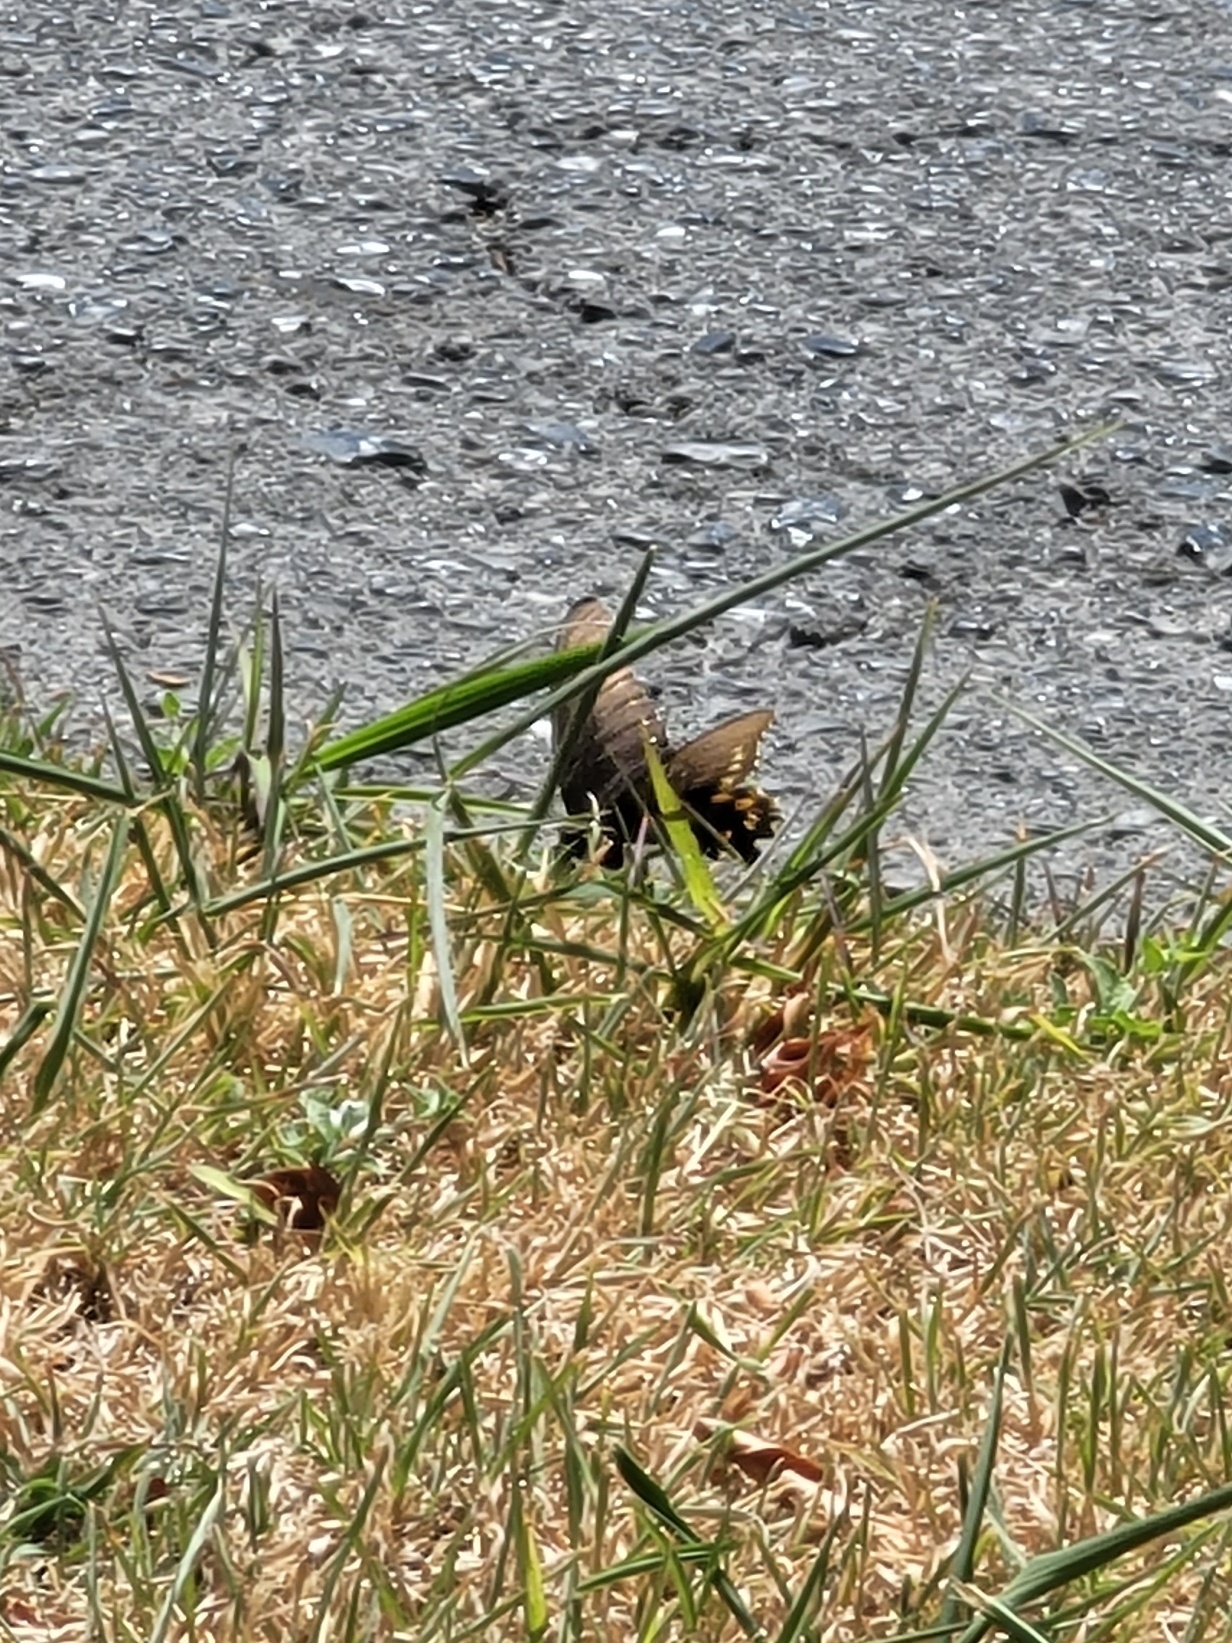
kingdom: Animalia
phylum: Arthropoda
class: Insecta
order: Lepidoptera
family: Papilionidae
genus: Battus
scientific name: Battus polydamas
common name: Polydamas swallowtail
